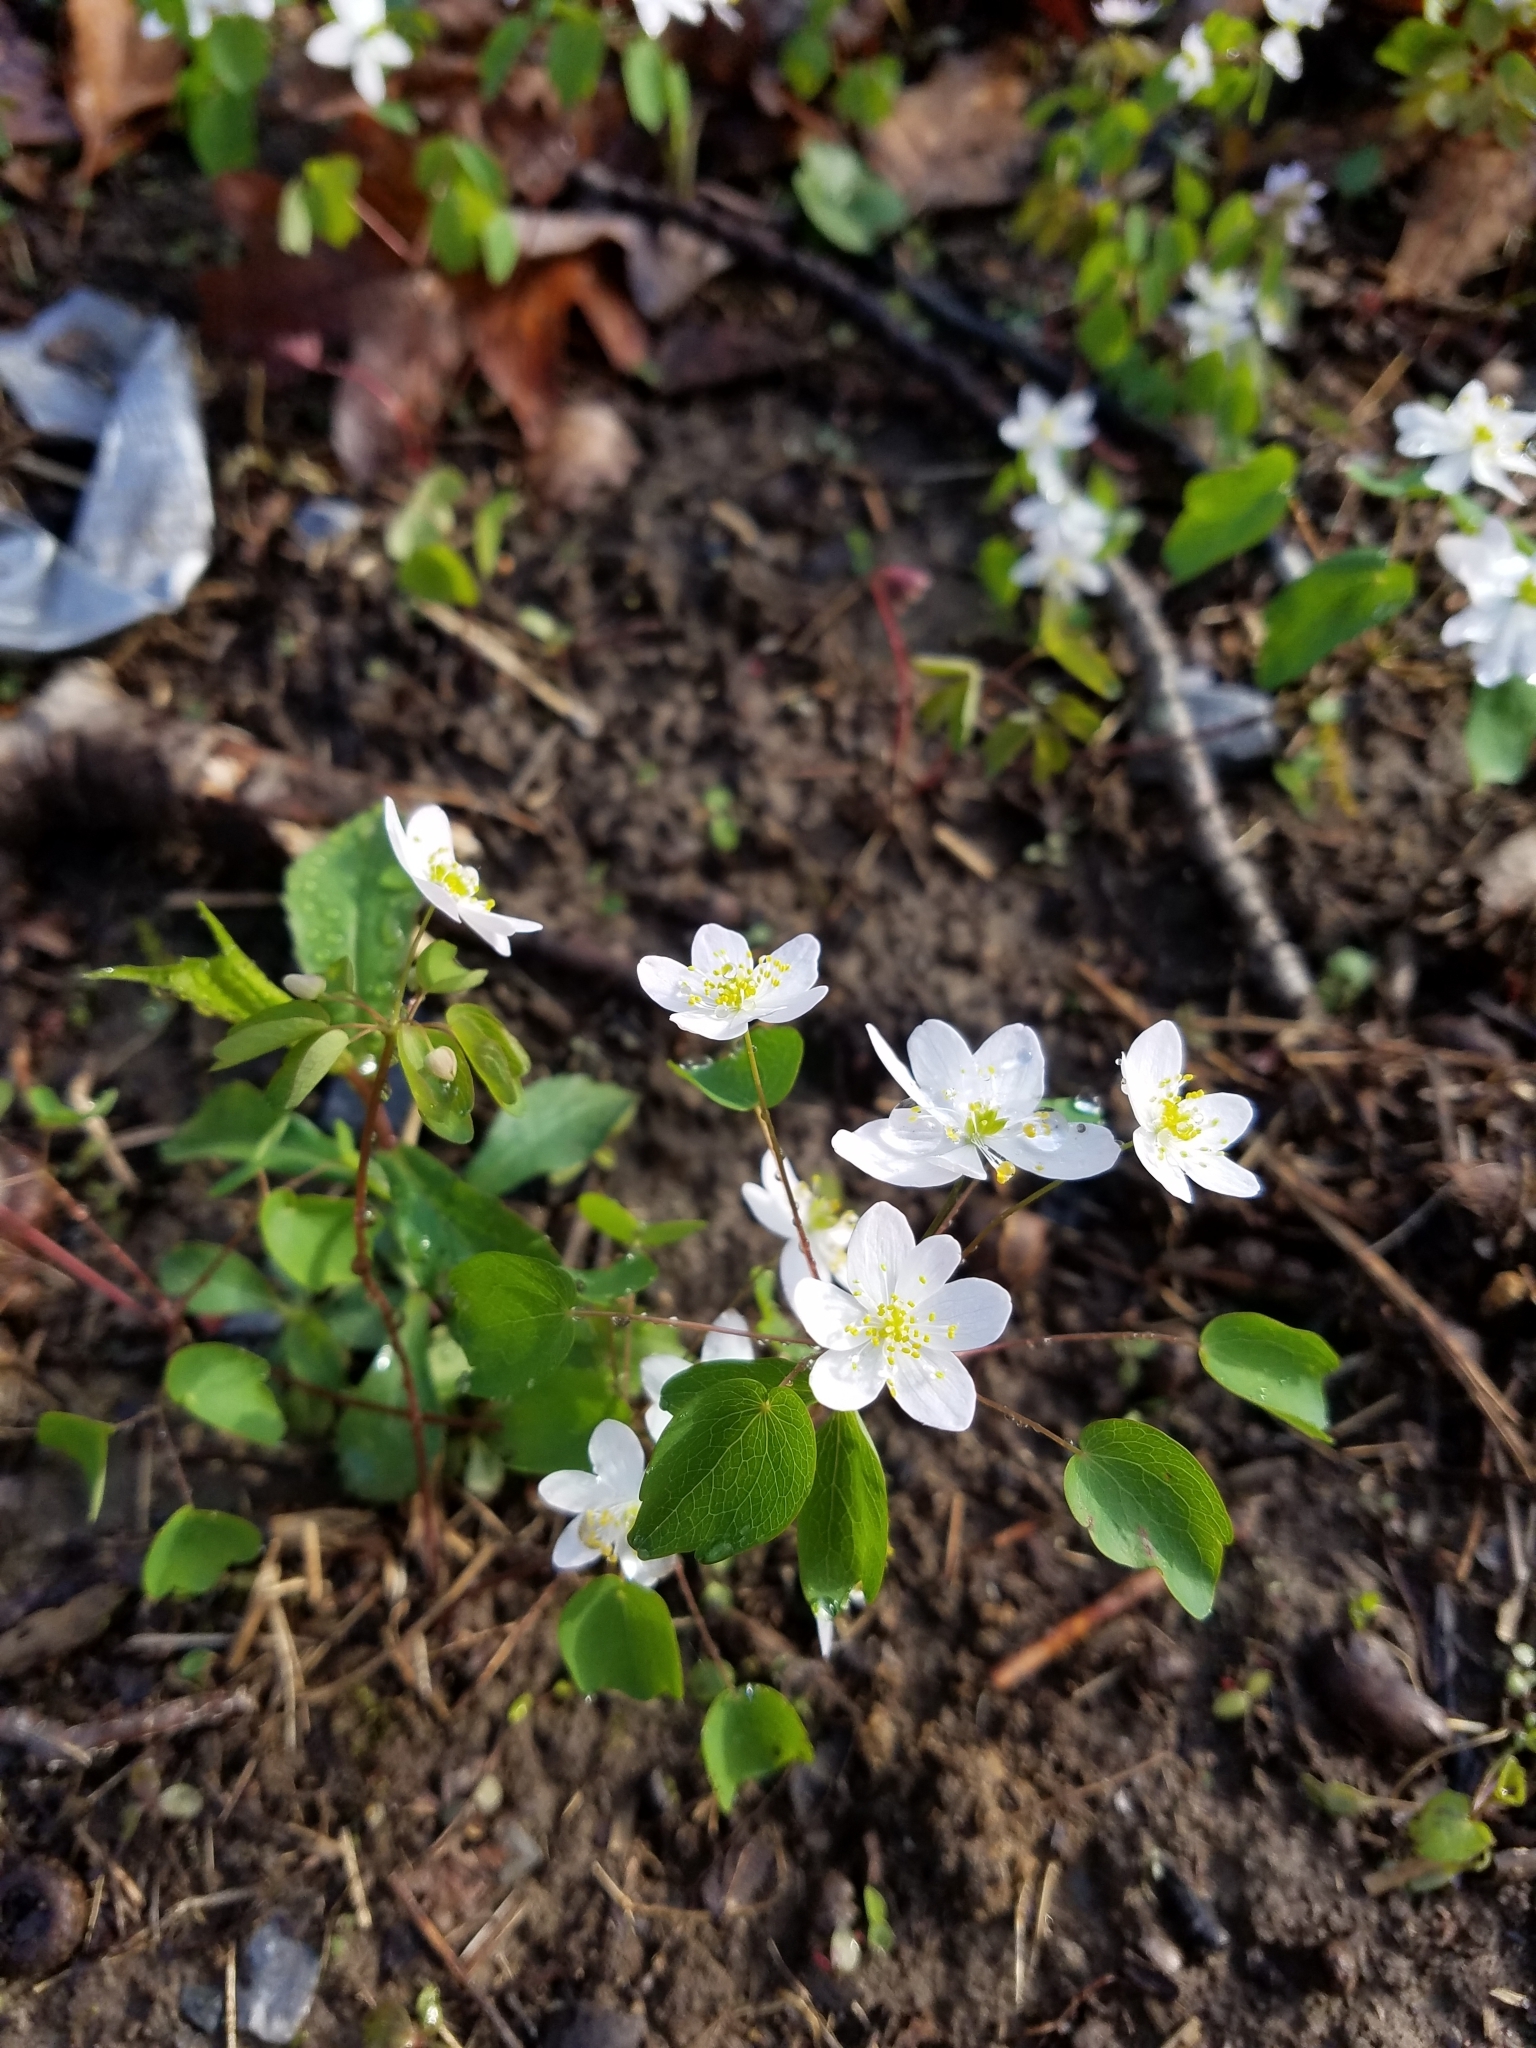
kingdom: Plantae
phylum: Tracheophyta
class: Magnoliopsida
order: Ranunculales
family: Ranunculaceae
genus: Thalictrum
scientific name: Thalictrum thalictroides
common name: Rue-anemone
